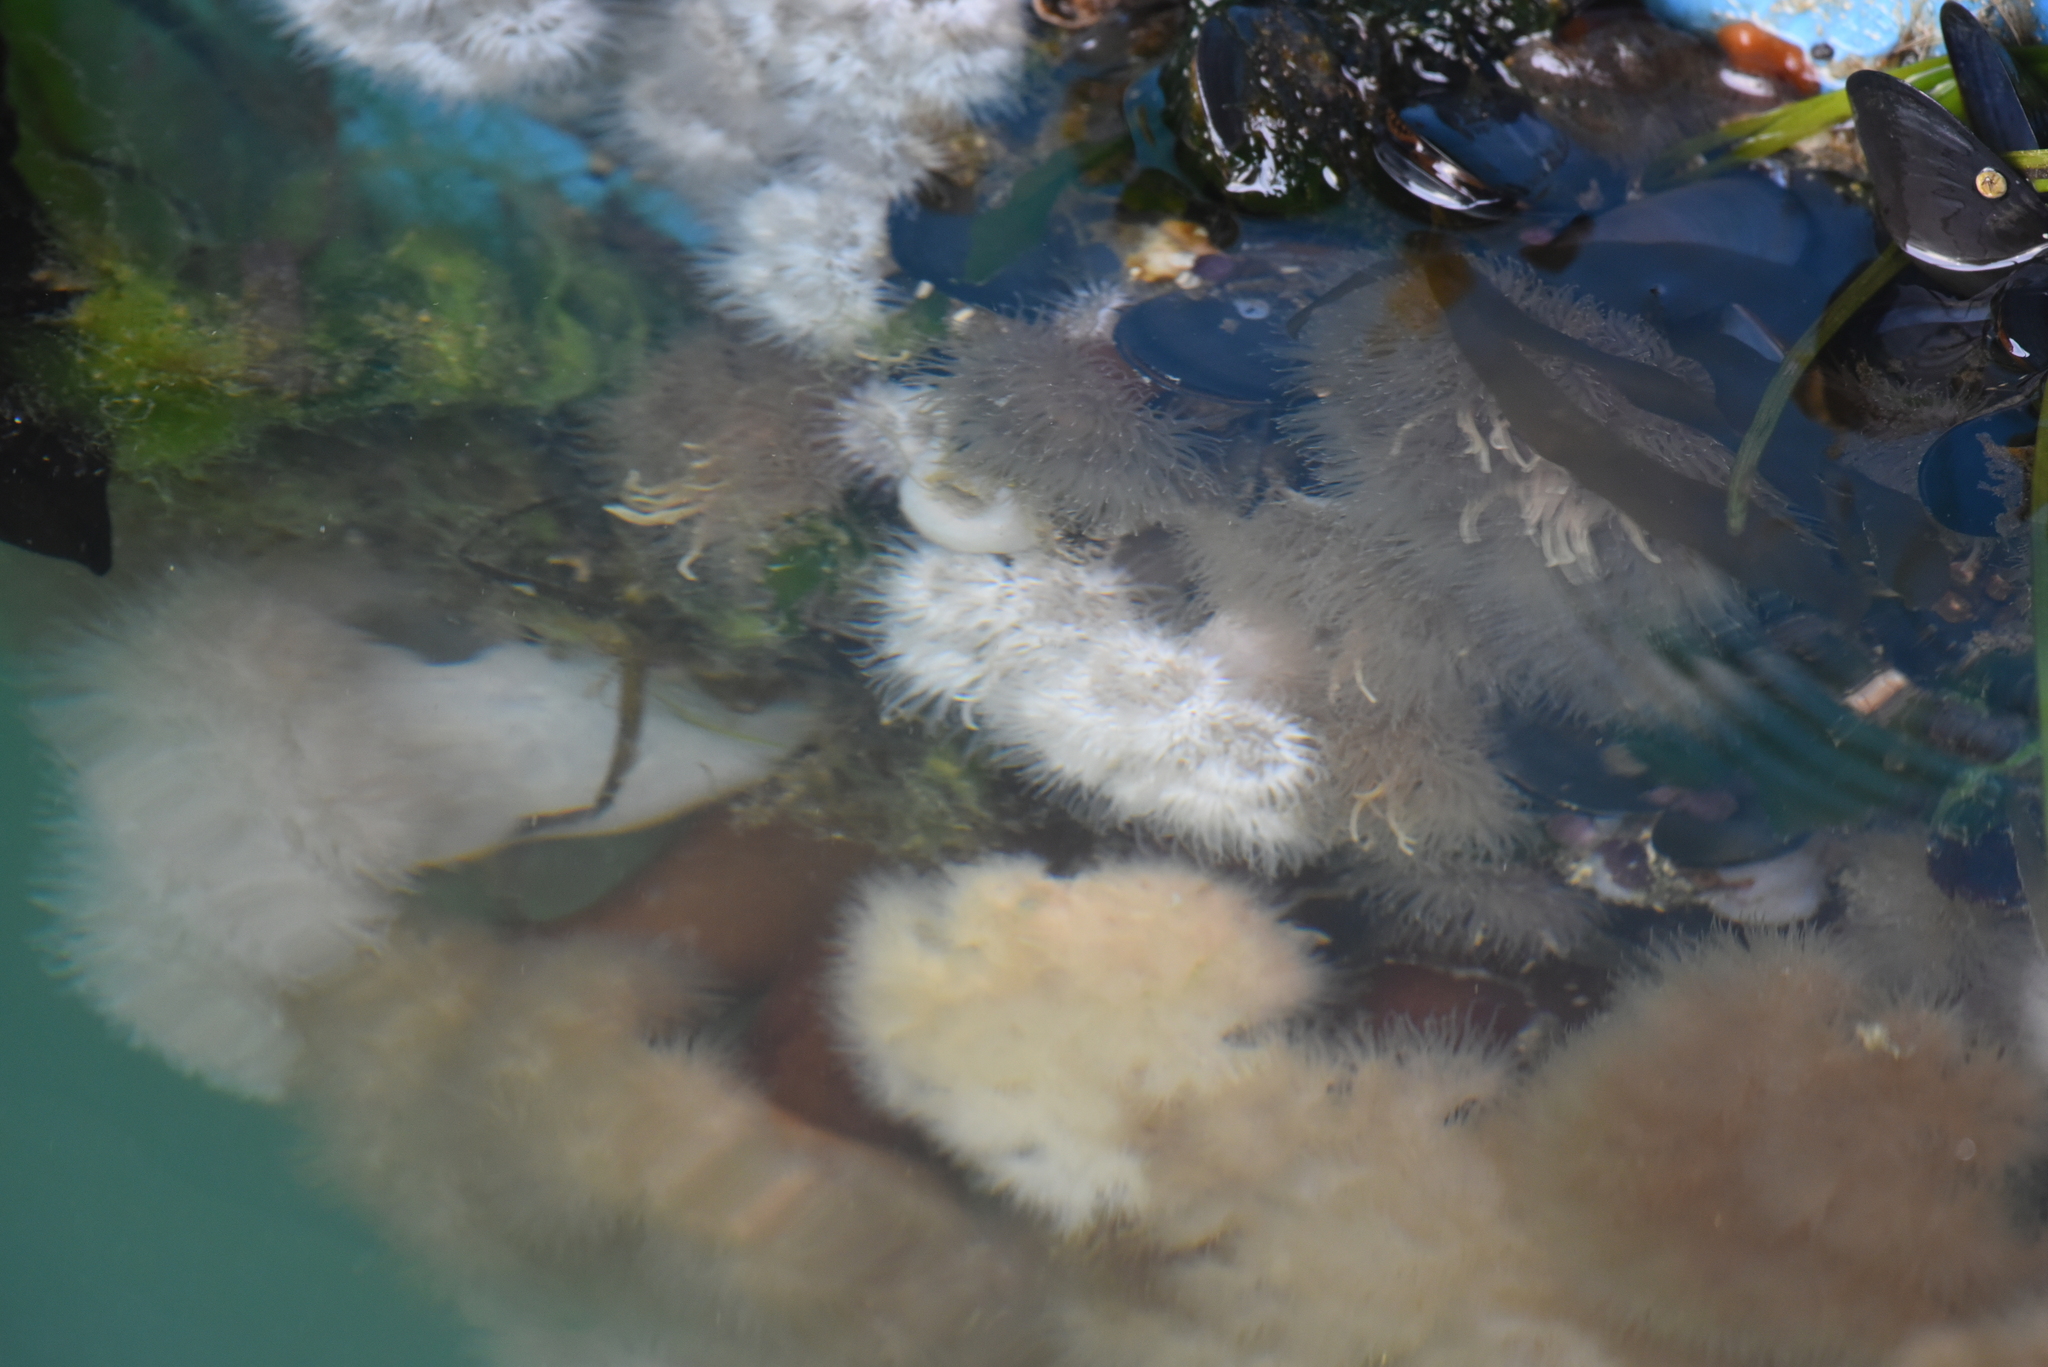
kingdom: Animalia
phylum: Cnidaria
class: Anthozoa
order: Actiniaria
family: Metridiidae
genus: Metridium
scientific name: Metridium senile
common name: Clonal plumose anemone
